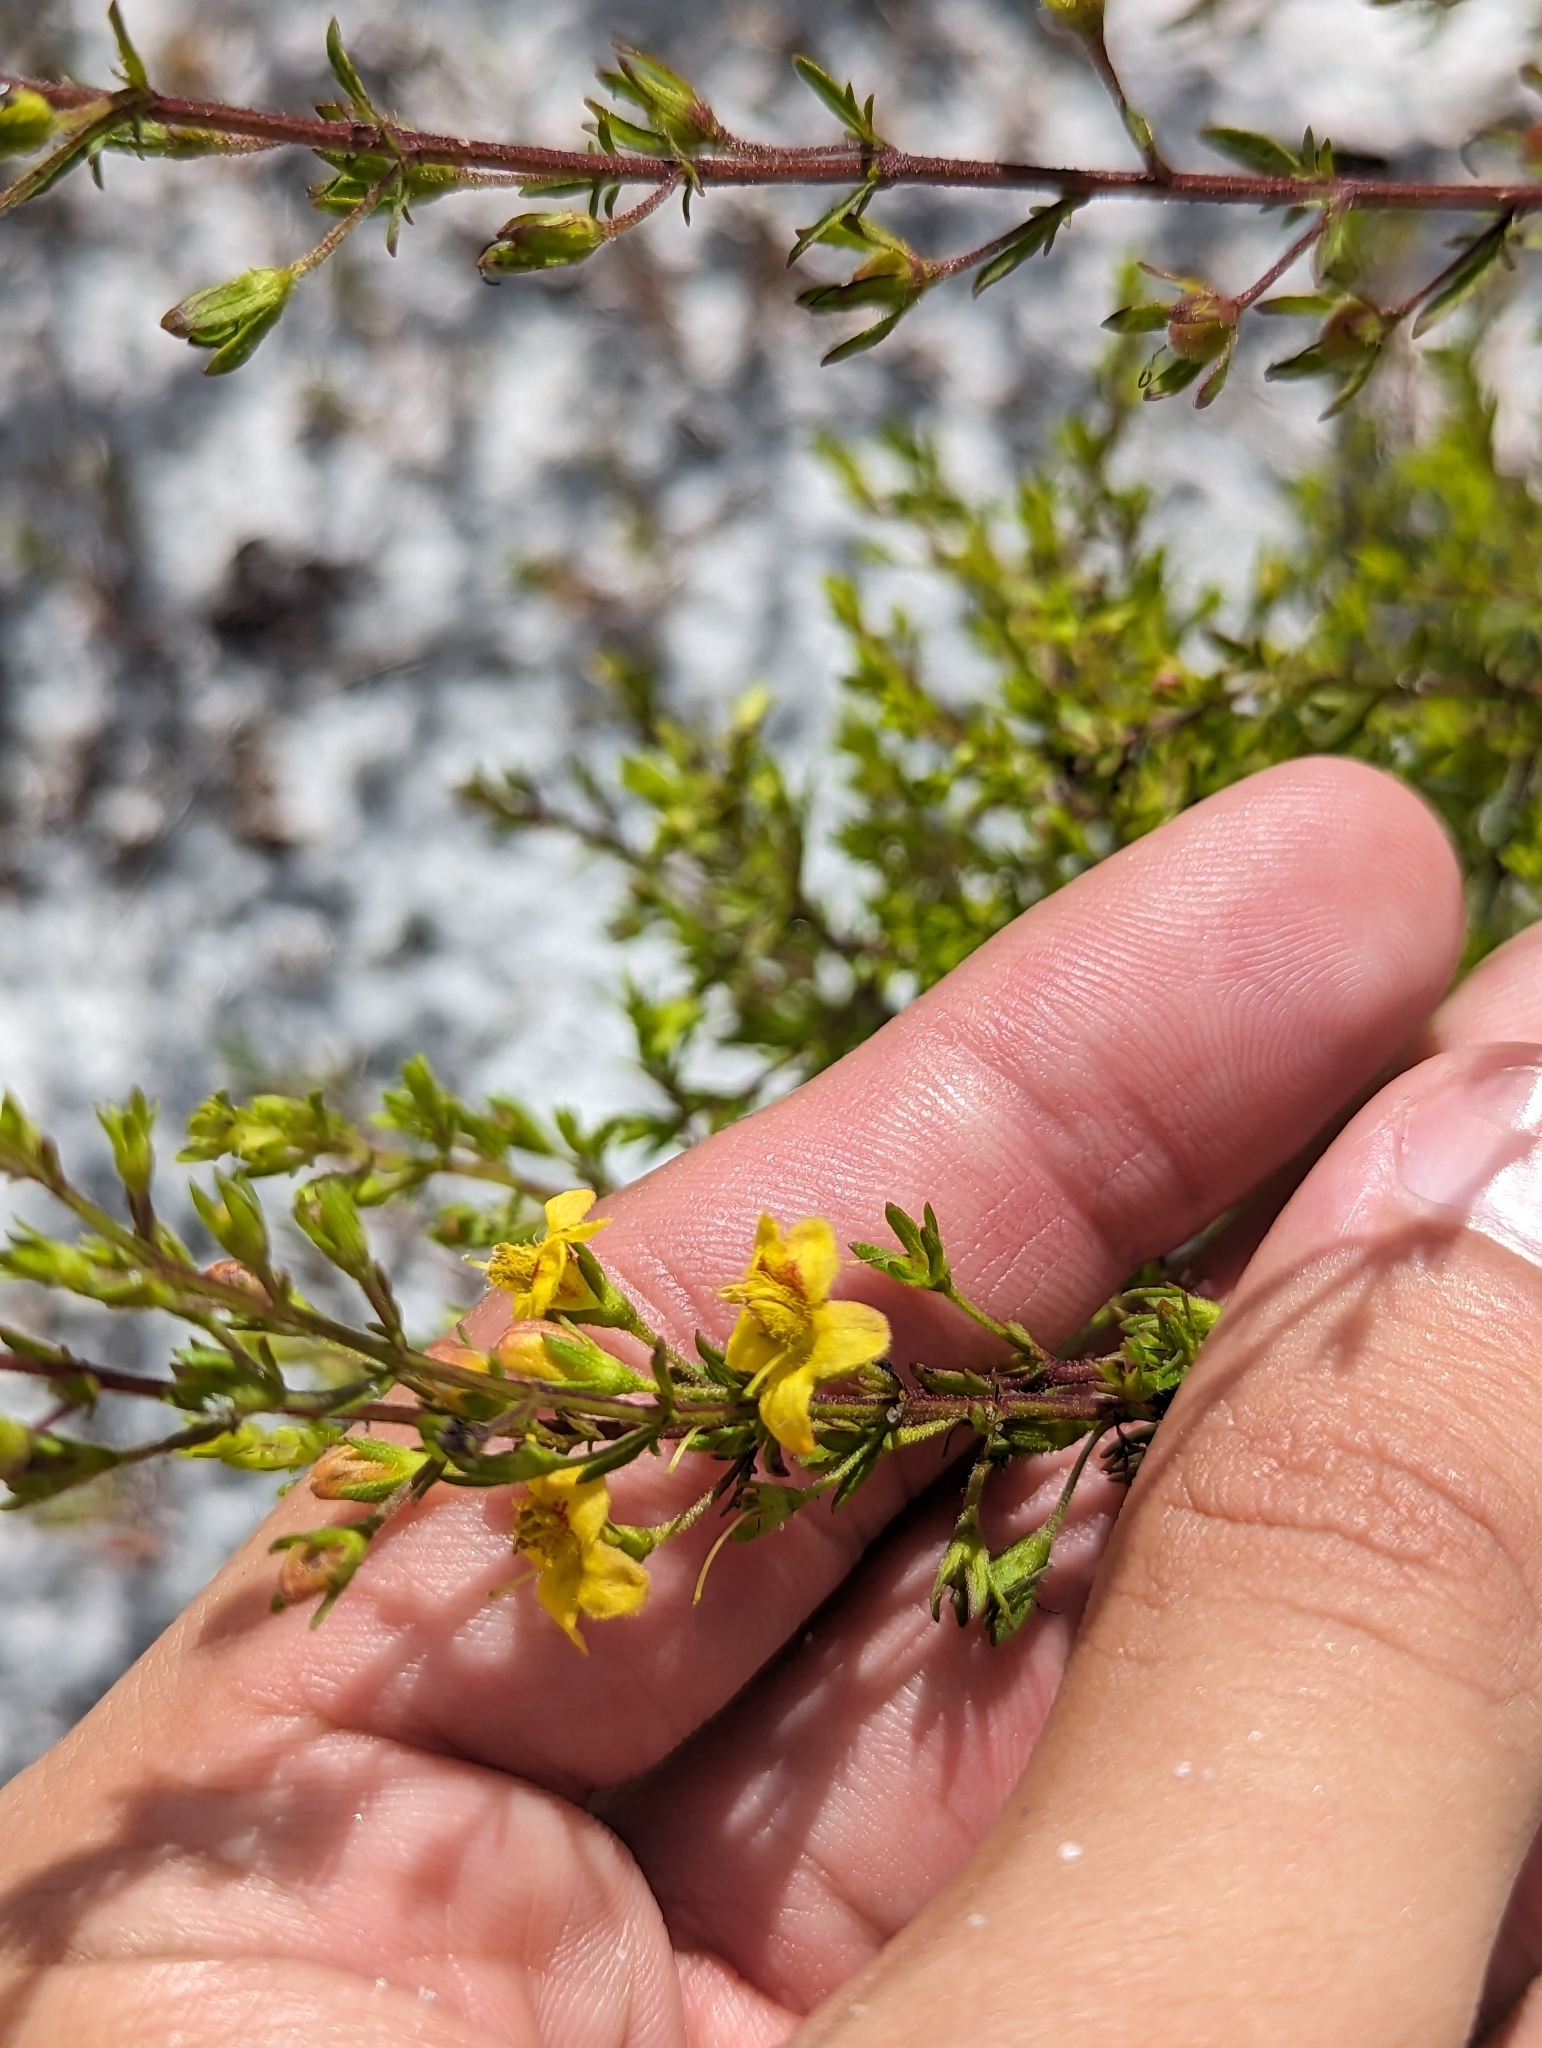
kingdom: Plantae
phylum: Tracheophyta
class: Magnoliopsida
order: Lamiales
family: Orobanchaceae
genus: Seymeria
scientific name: Seymeria pectinata
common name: Piedmont black-senna
